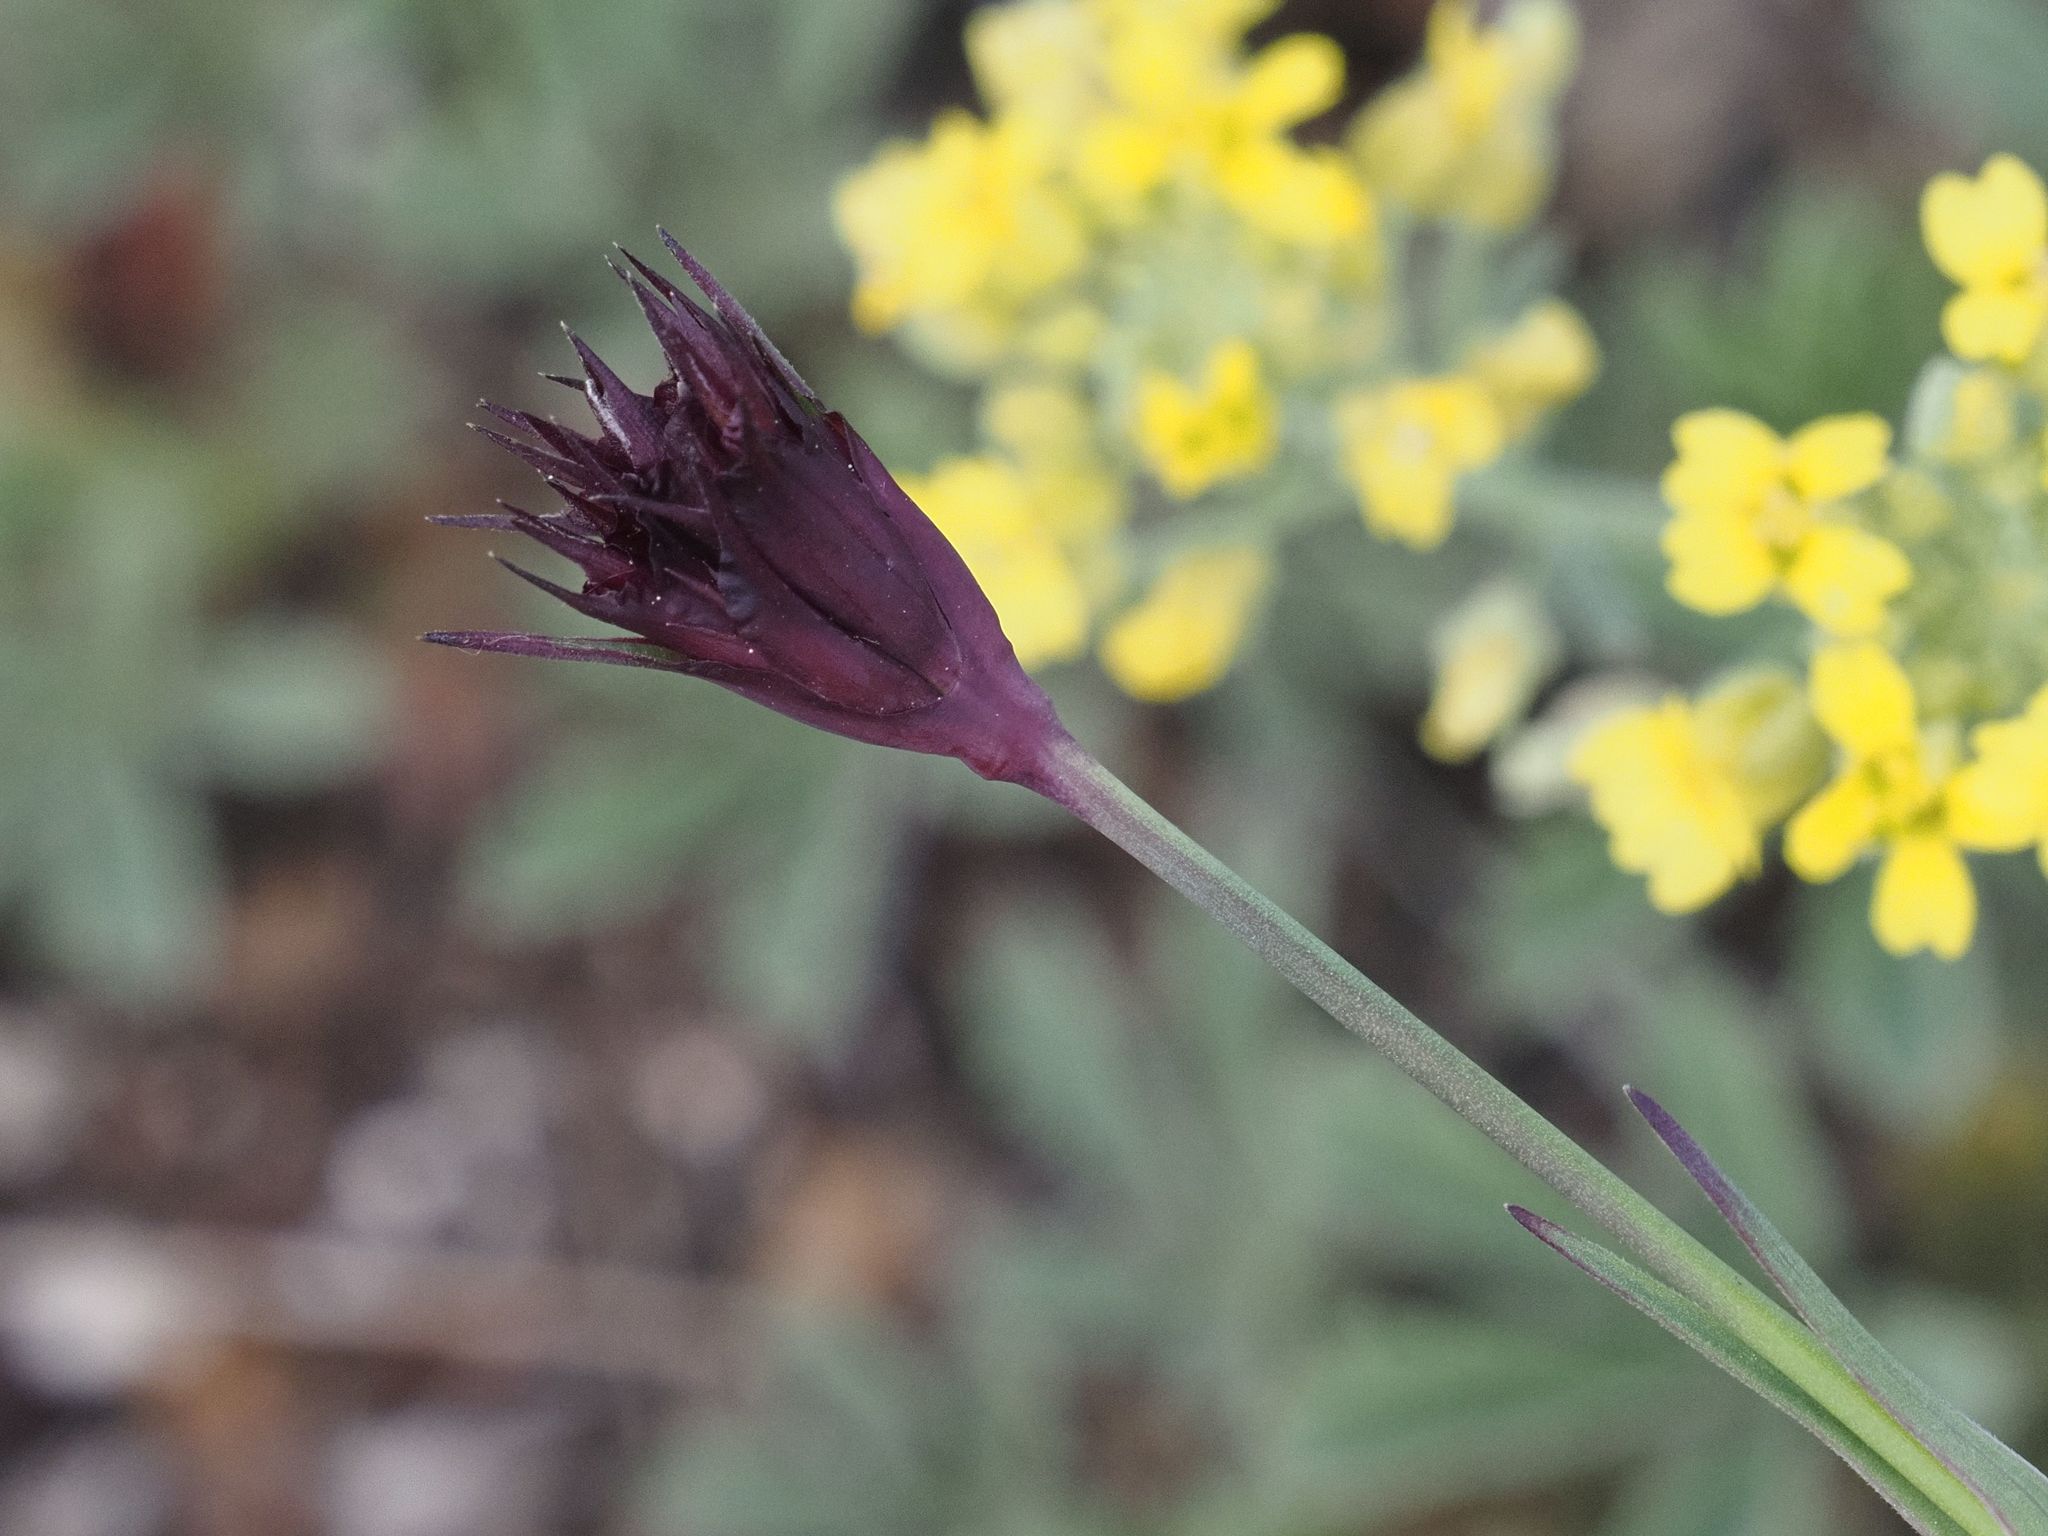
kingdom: Plantae
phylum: Tracheophyta
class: Magnoliopsida
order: Caryophyllales
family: Caryophyllaceae
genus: Dianthus
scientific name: Dianthus carthusianorum
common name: Carthusian pink
